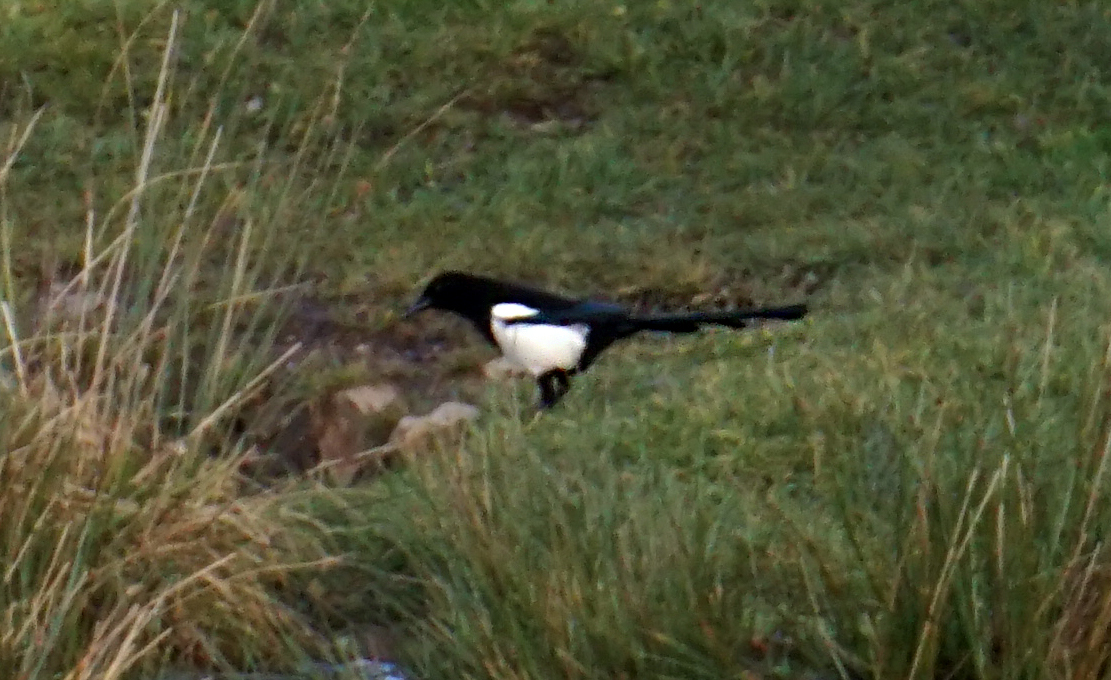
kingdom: Animalia
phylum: Chordata
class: Aves
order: Passeriformes
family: Corvidae
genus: Pica
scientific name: Pica pica
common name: Eurasian magpie
